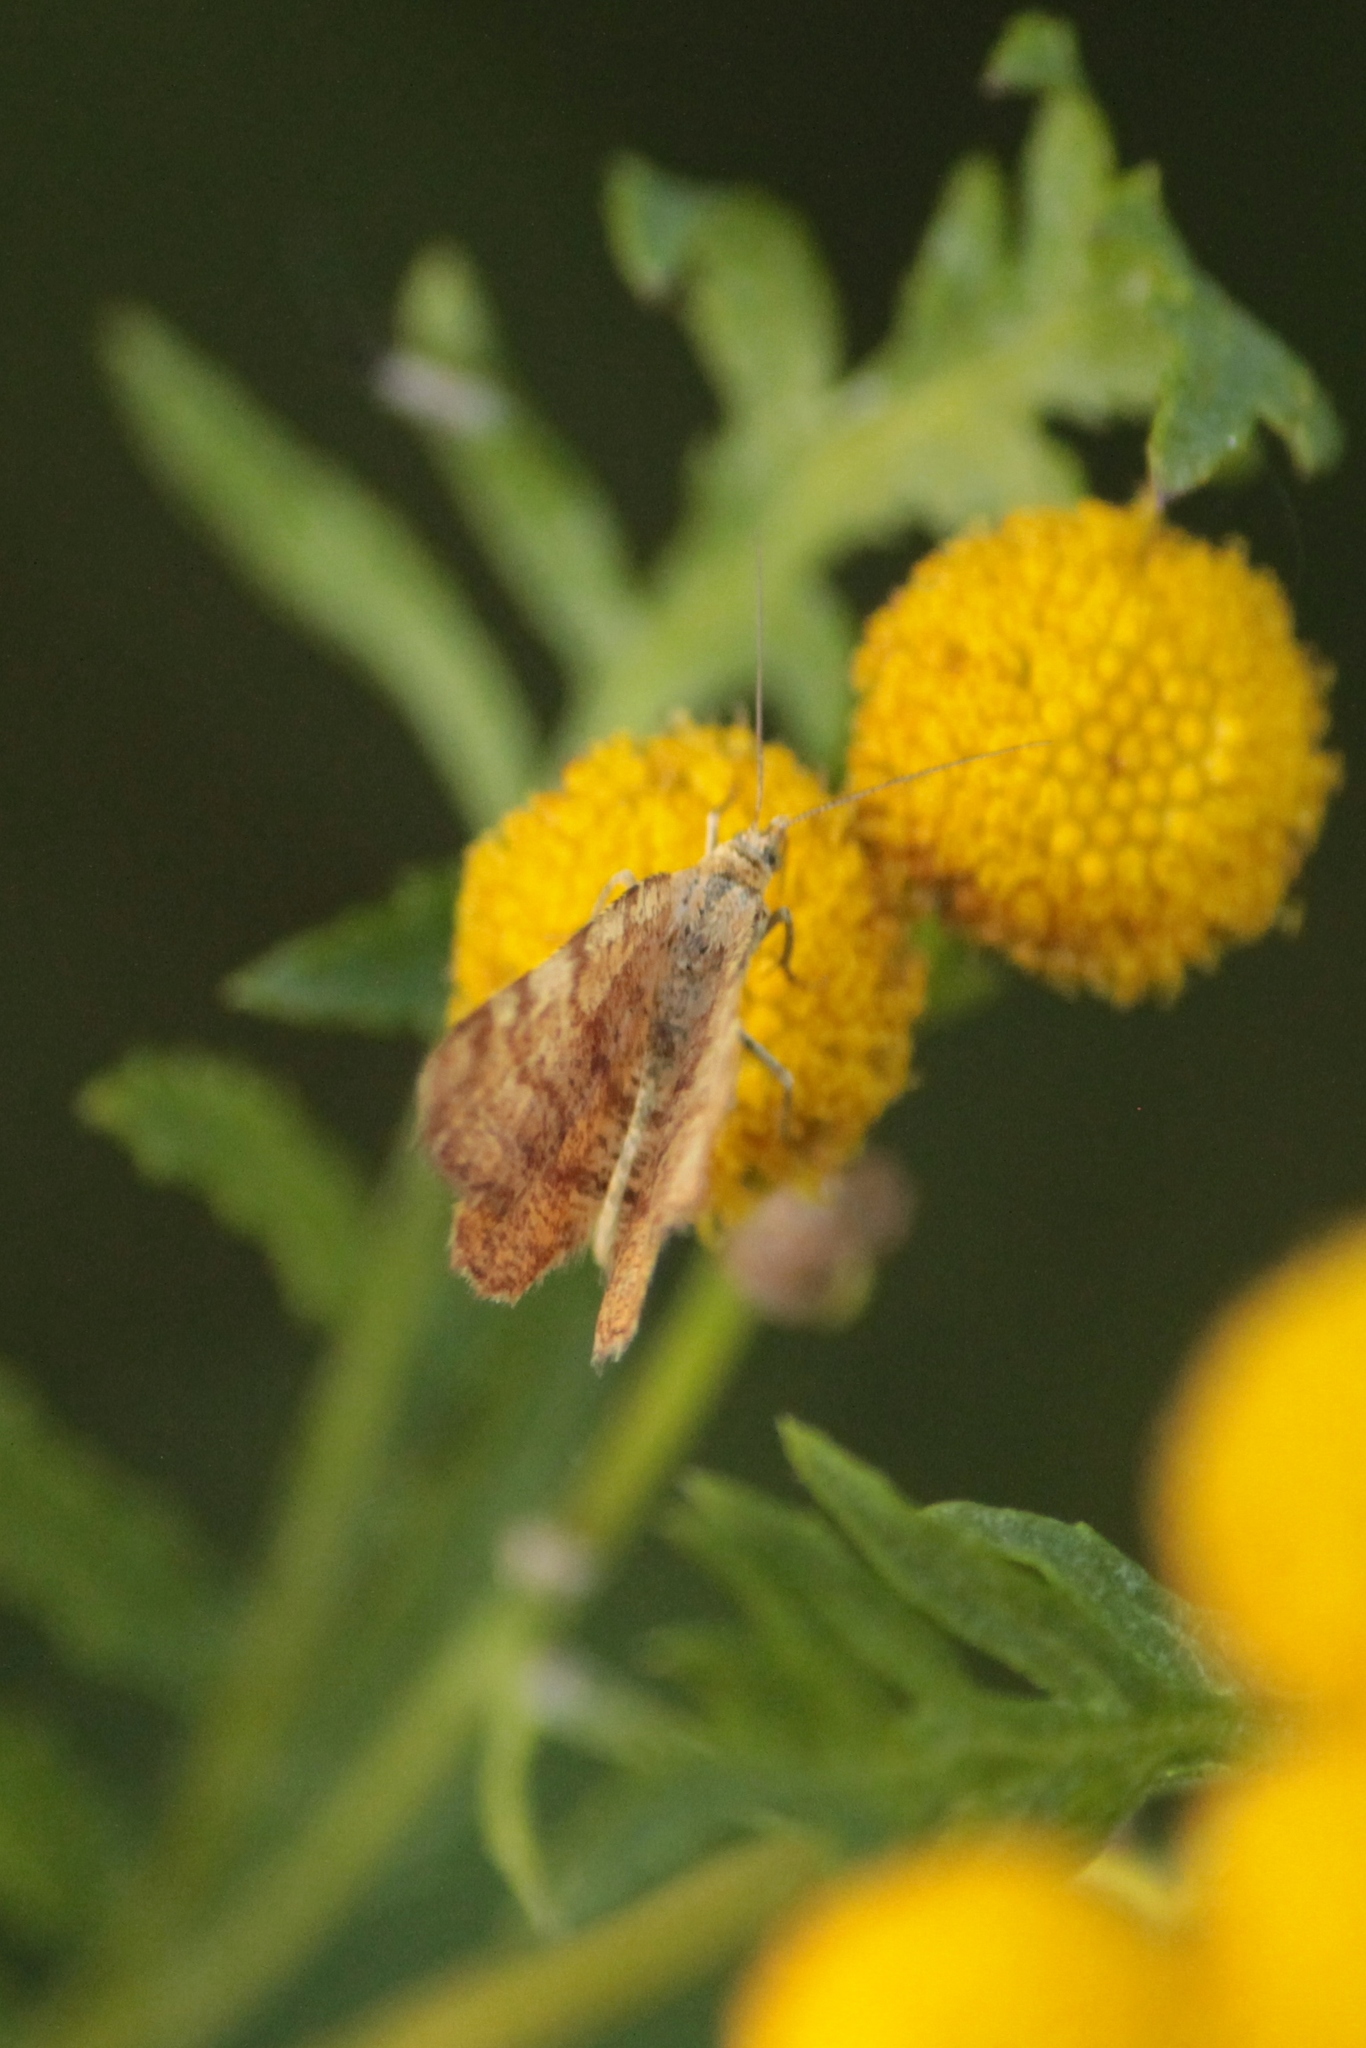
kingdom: Animalia
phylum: Arthropoda
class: Insecta
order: Lepidoptera
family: Geometridae
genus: Macaria
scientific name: Macaria brunneata
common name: Rannoch looper
